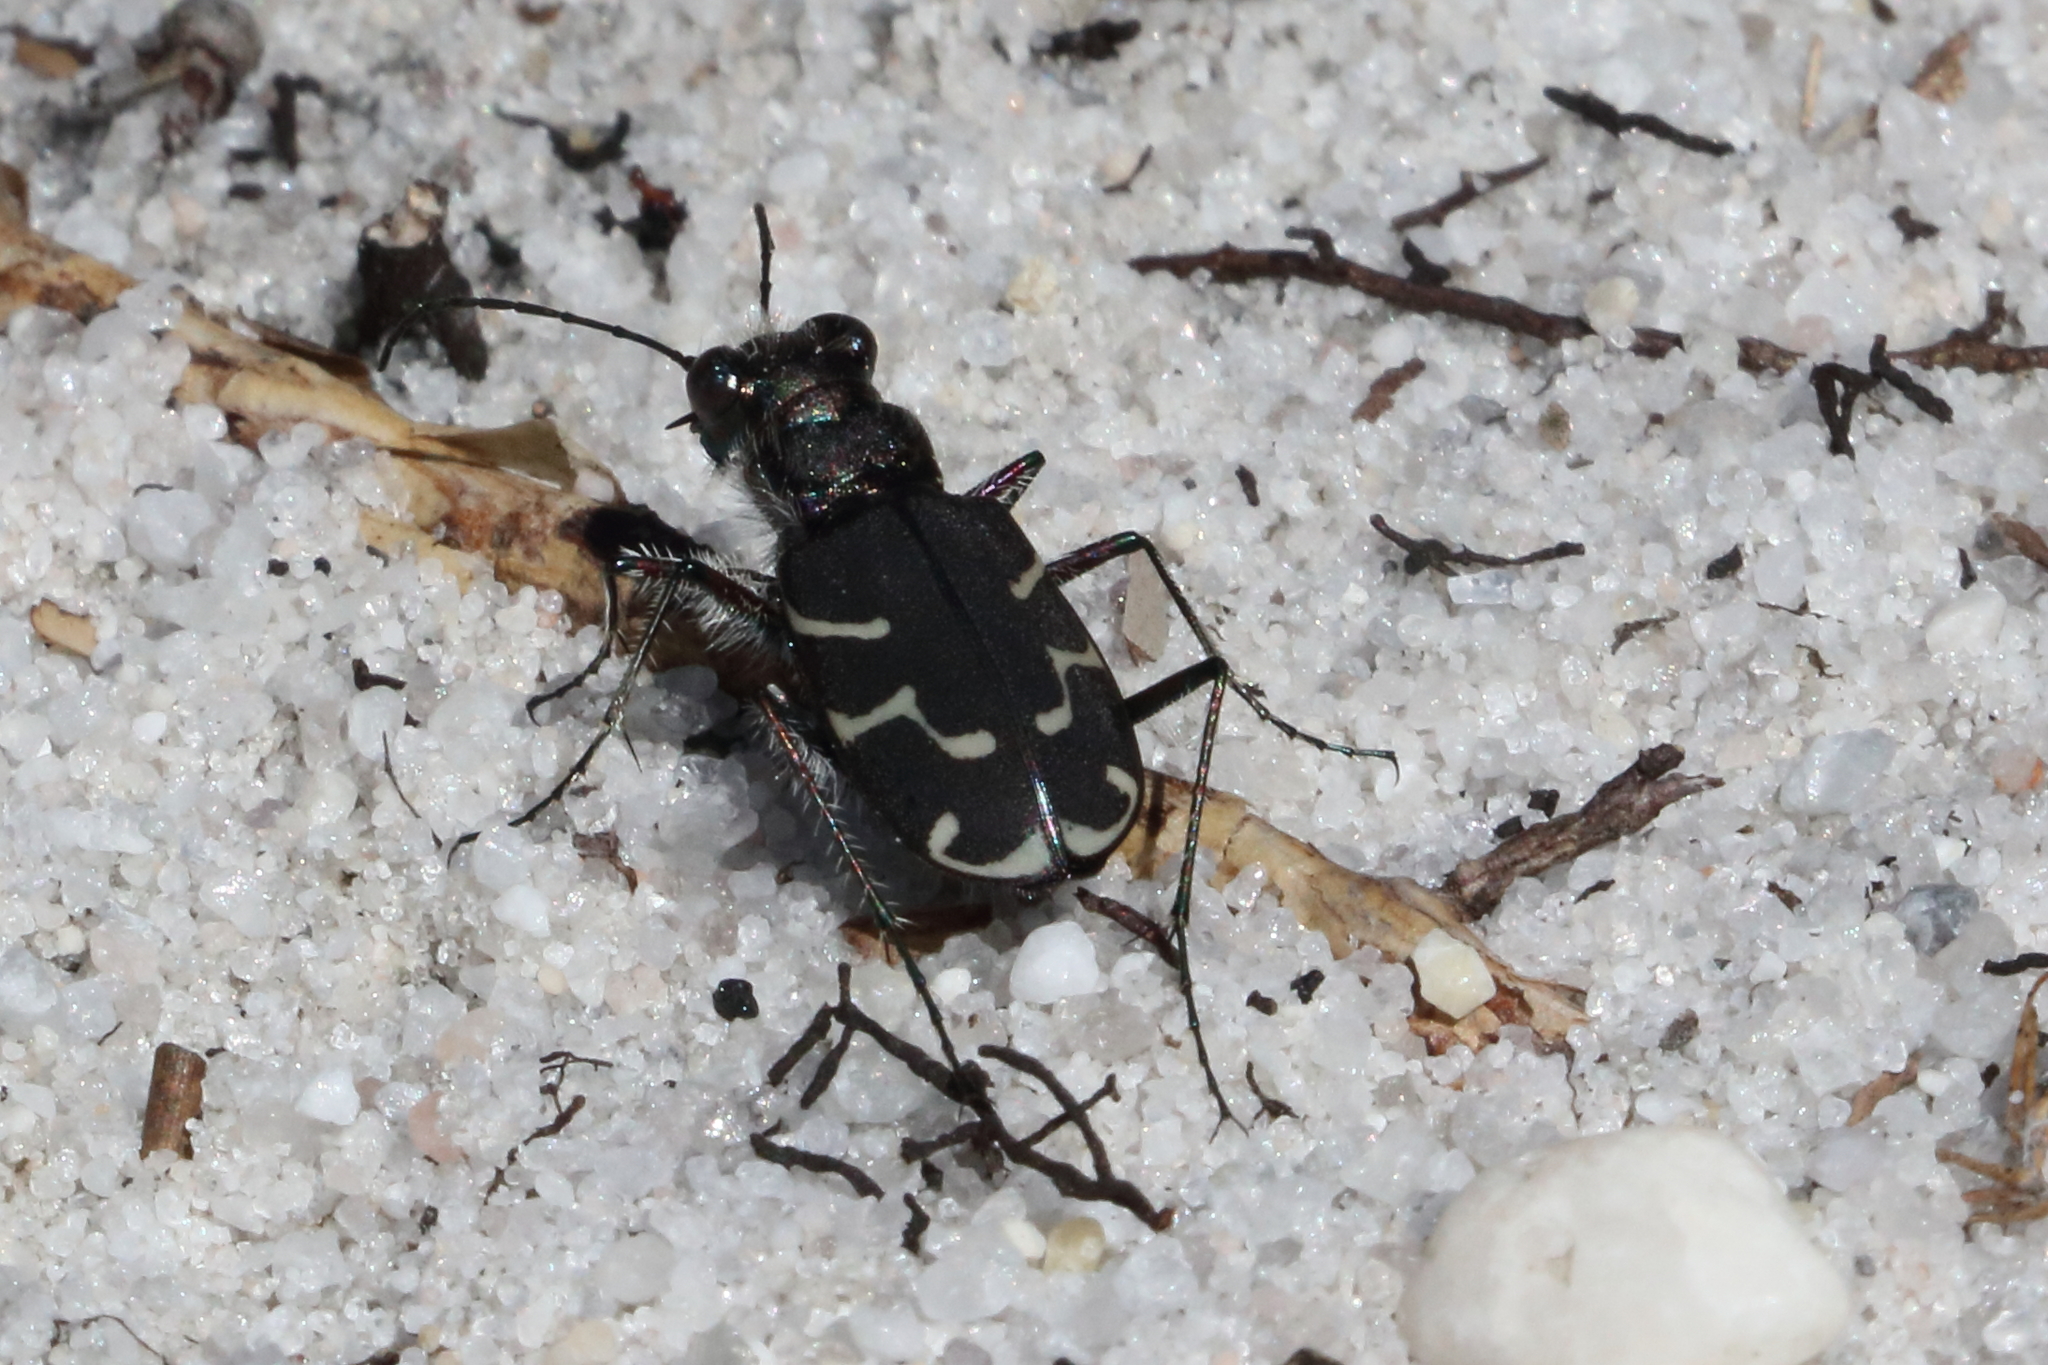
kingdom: Animalia
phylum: Arthropoda
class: Insecta
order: Coleoptera
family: Carabidae
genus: Cicindela
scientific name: Cicindela tranquebarica
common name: Oblique-lined tiger beetle
